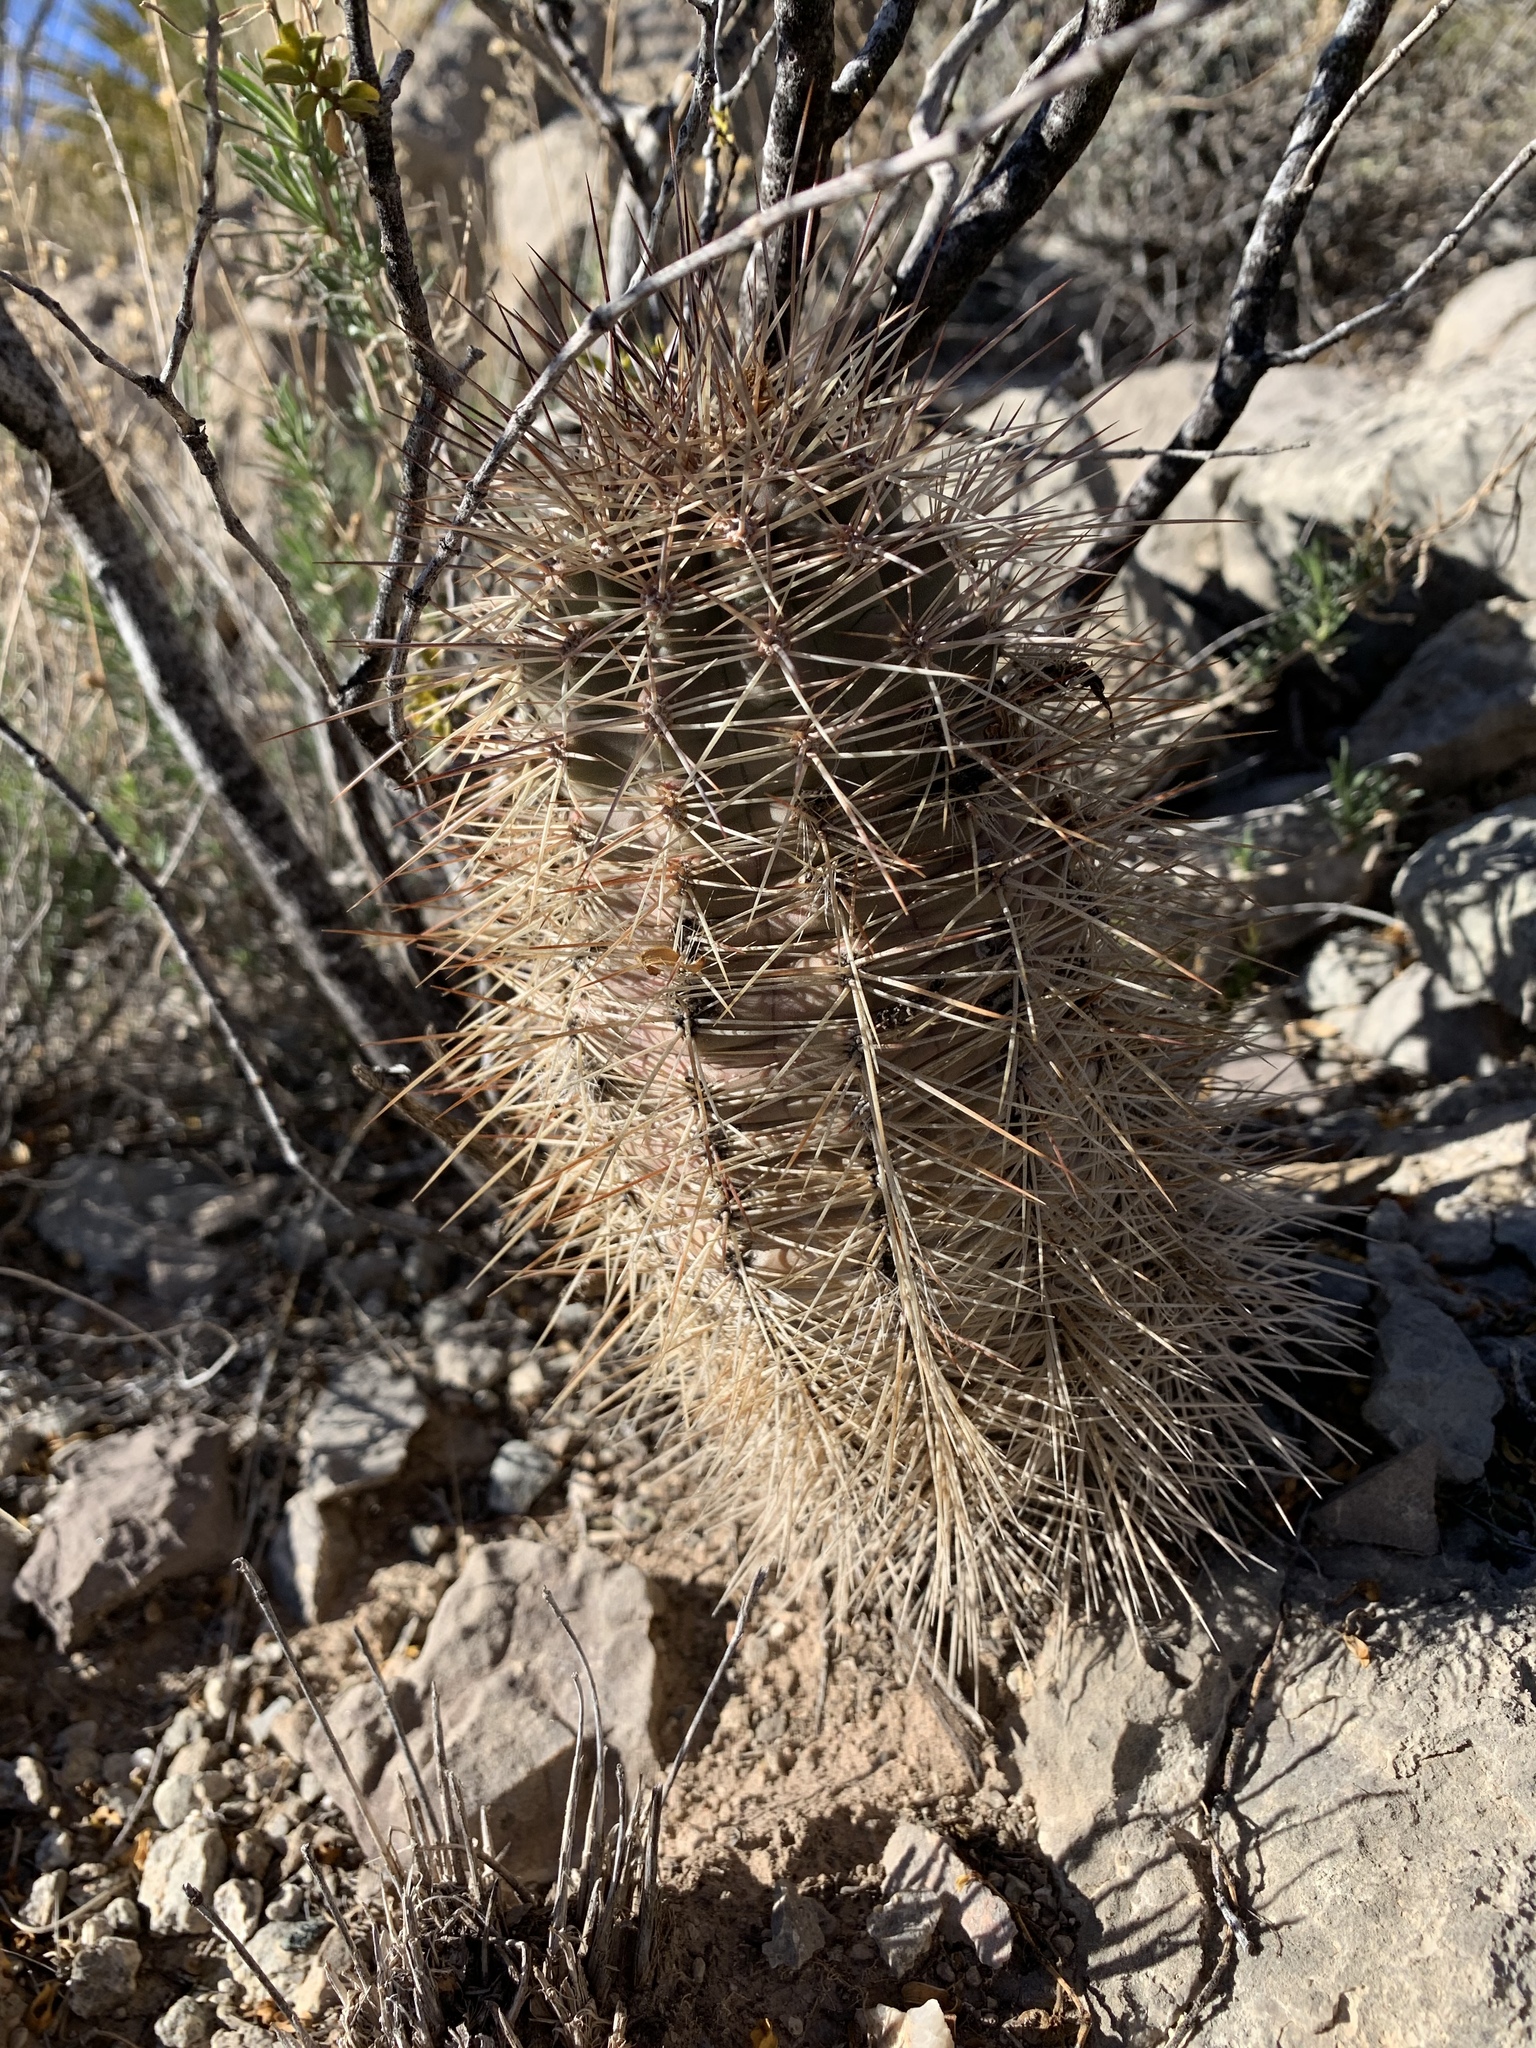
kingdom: Plantae
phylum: Tracheophyta
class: Magnoliopsida
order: Caryophyllales
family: Cactaceae
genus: Echinocereus
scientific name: Echinocereus coccineus
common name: Scarlet hedgehog cactus
